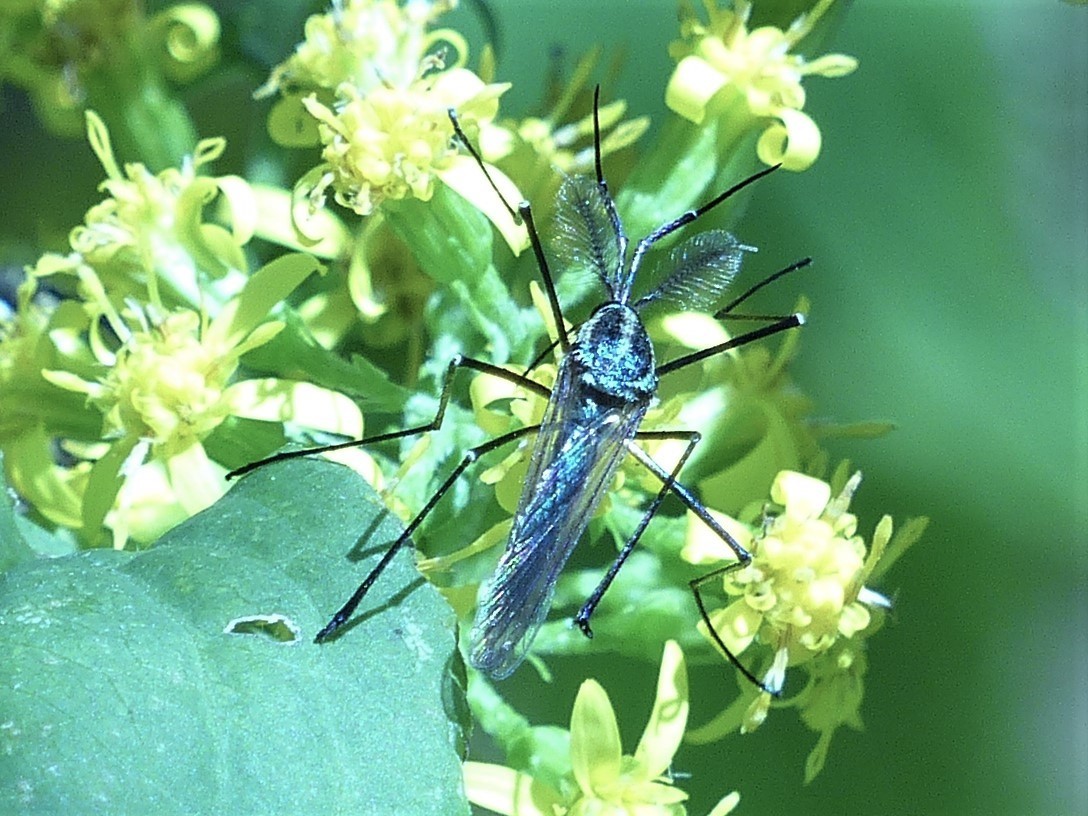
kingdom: Animalia
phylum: Arthropoda
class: Insecta
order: Diptera
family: Culicidae
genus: Toxorhynchites
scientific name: Toxorhynchites rutilus
